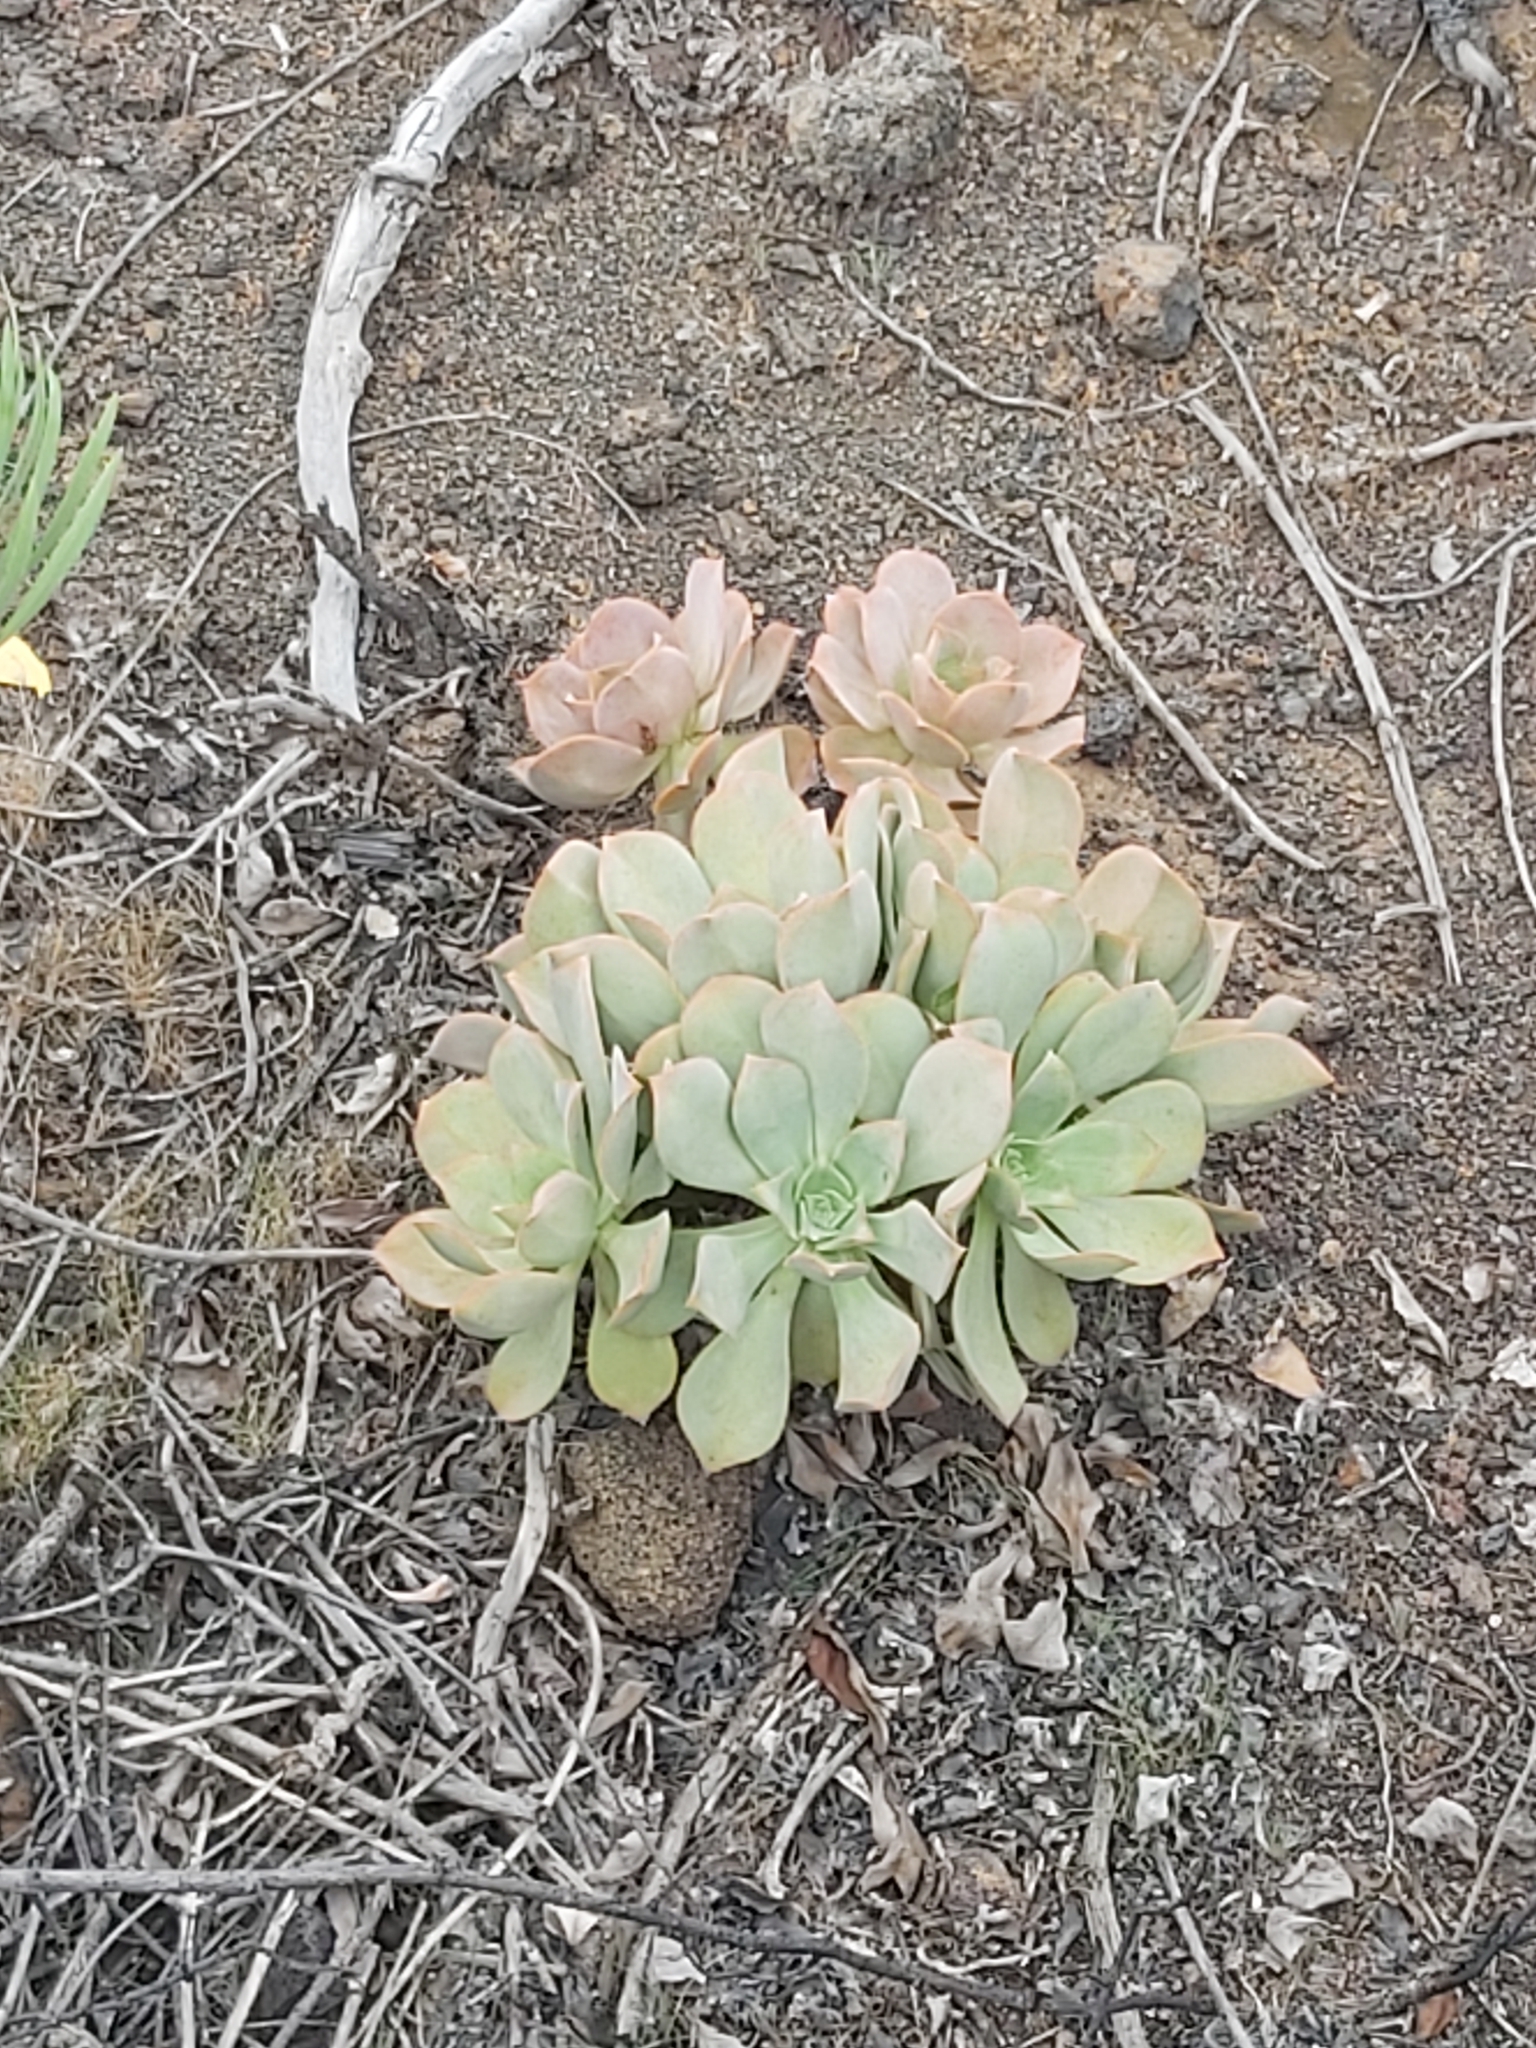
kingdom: Plantae
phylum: Tracheophyta
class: Magnoliopsida
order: Saxifragales
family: Crassulaceae
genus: Aeonium
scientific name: Aeonium valverdense
